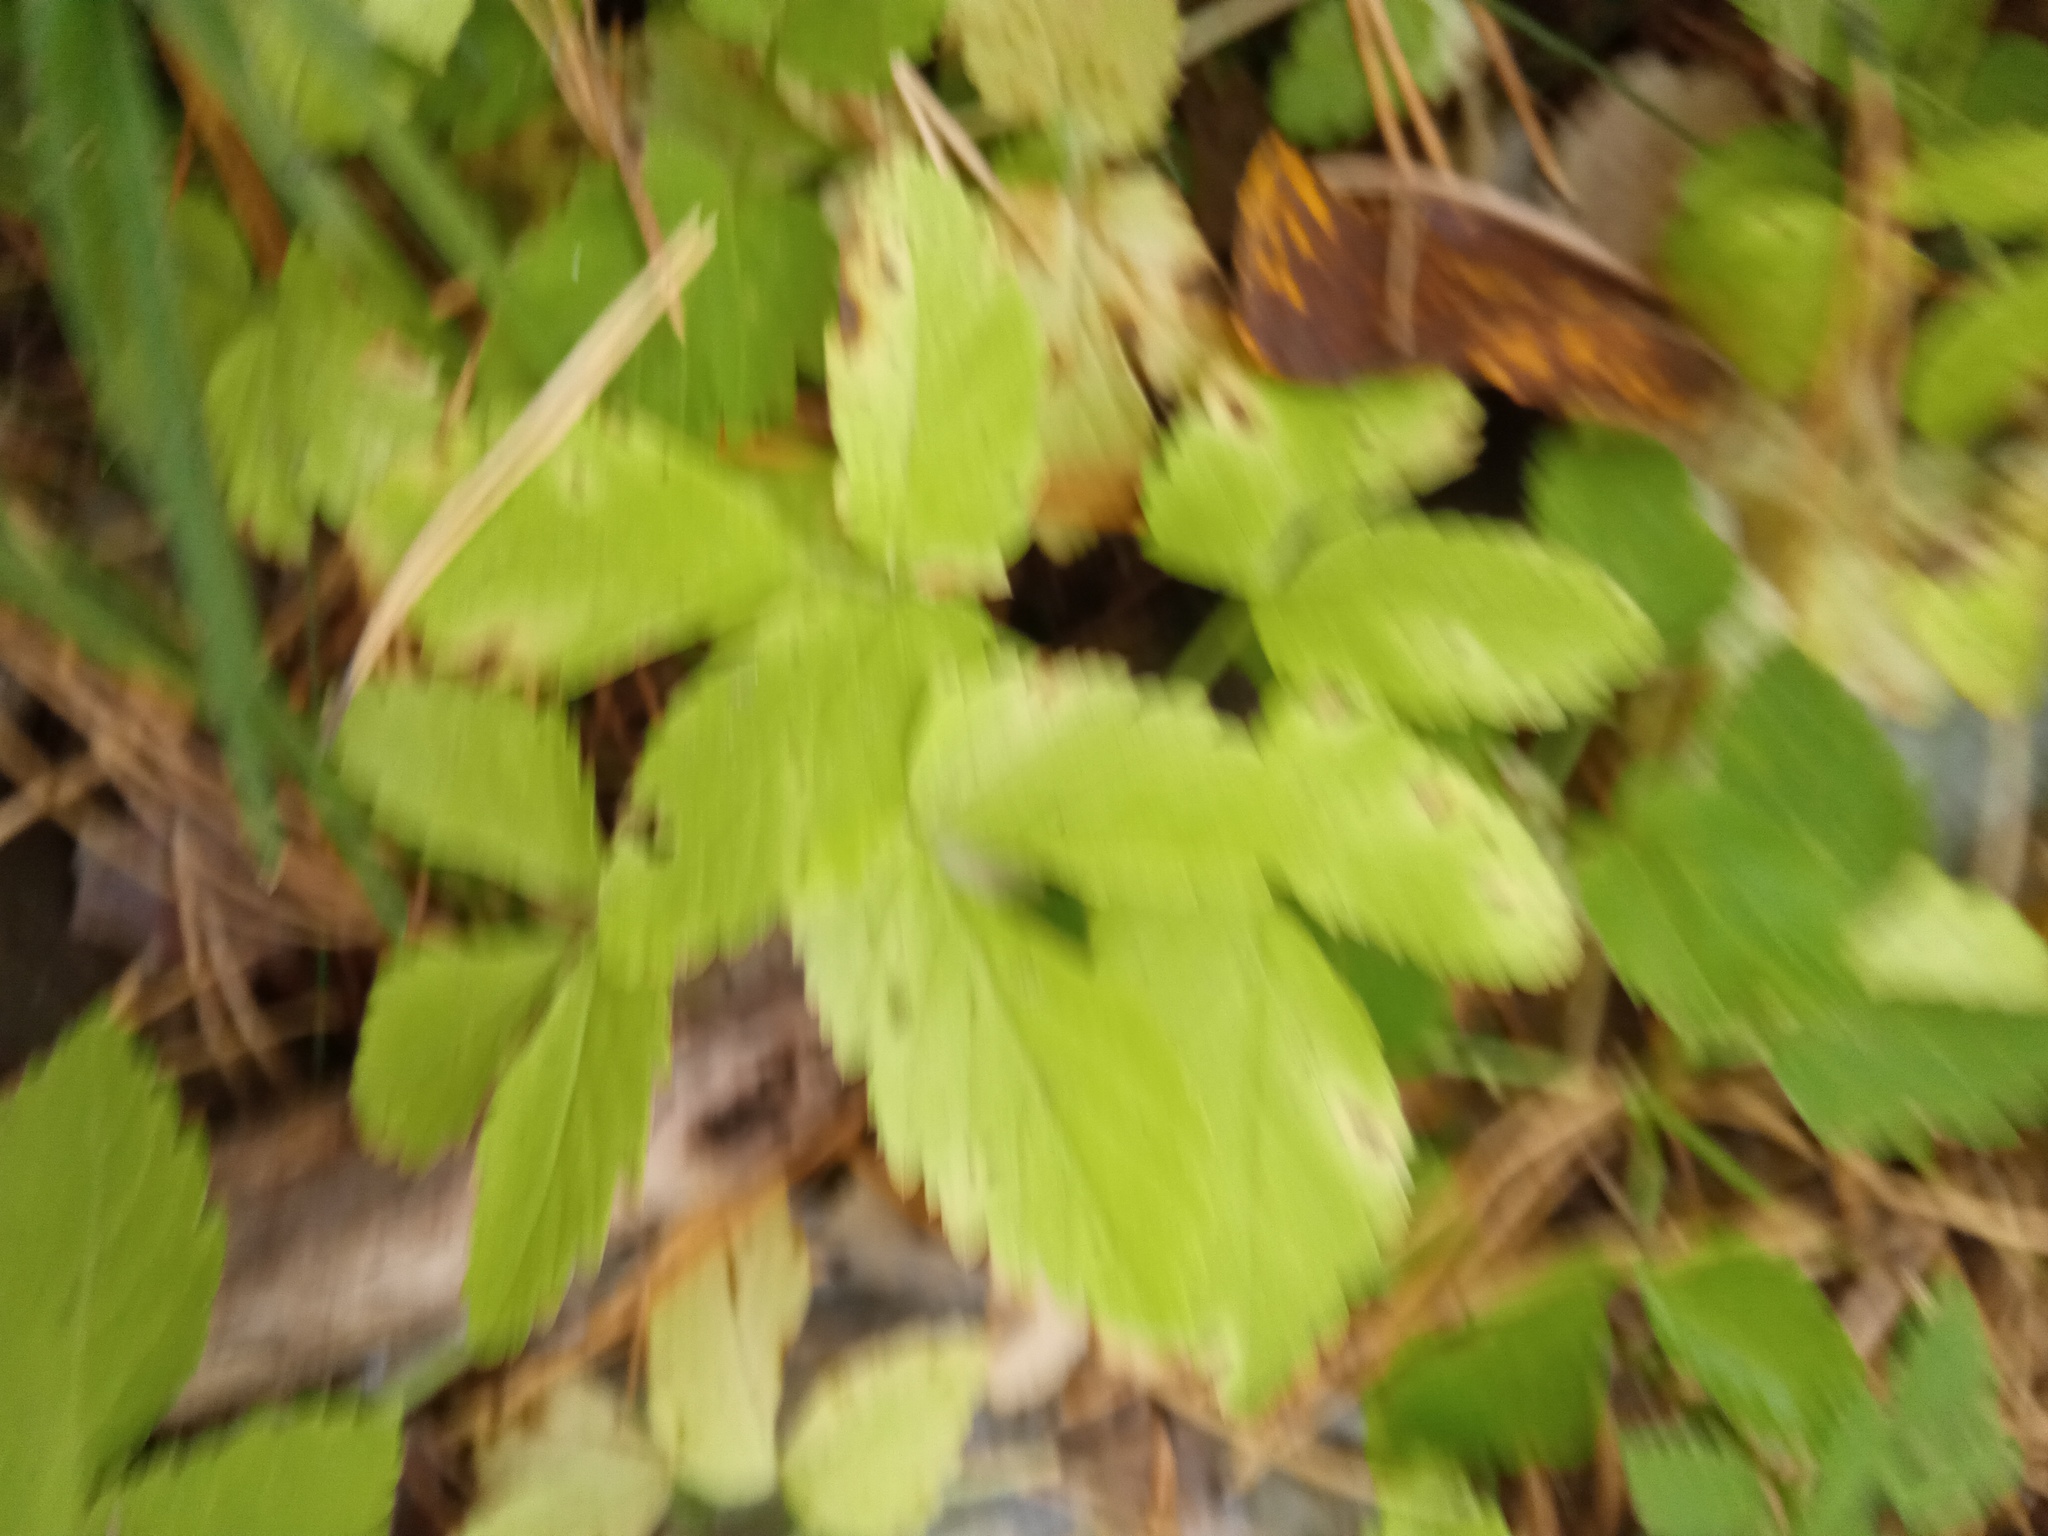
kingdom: Plantae
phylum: Tracheophyta
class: Magnoliopsida
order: Apiales
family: Apiaceae
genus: Aegopodium
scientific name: Aegopodium podagraria
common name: Ground-elder
